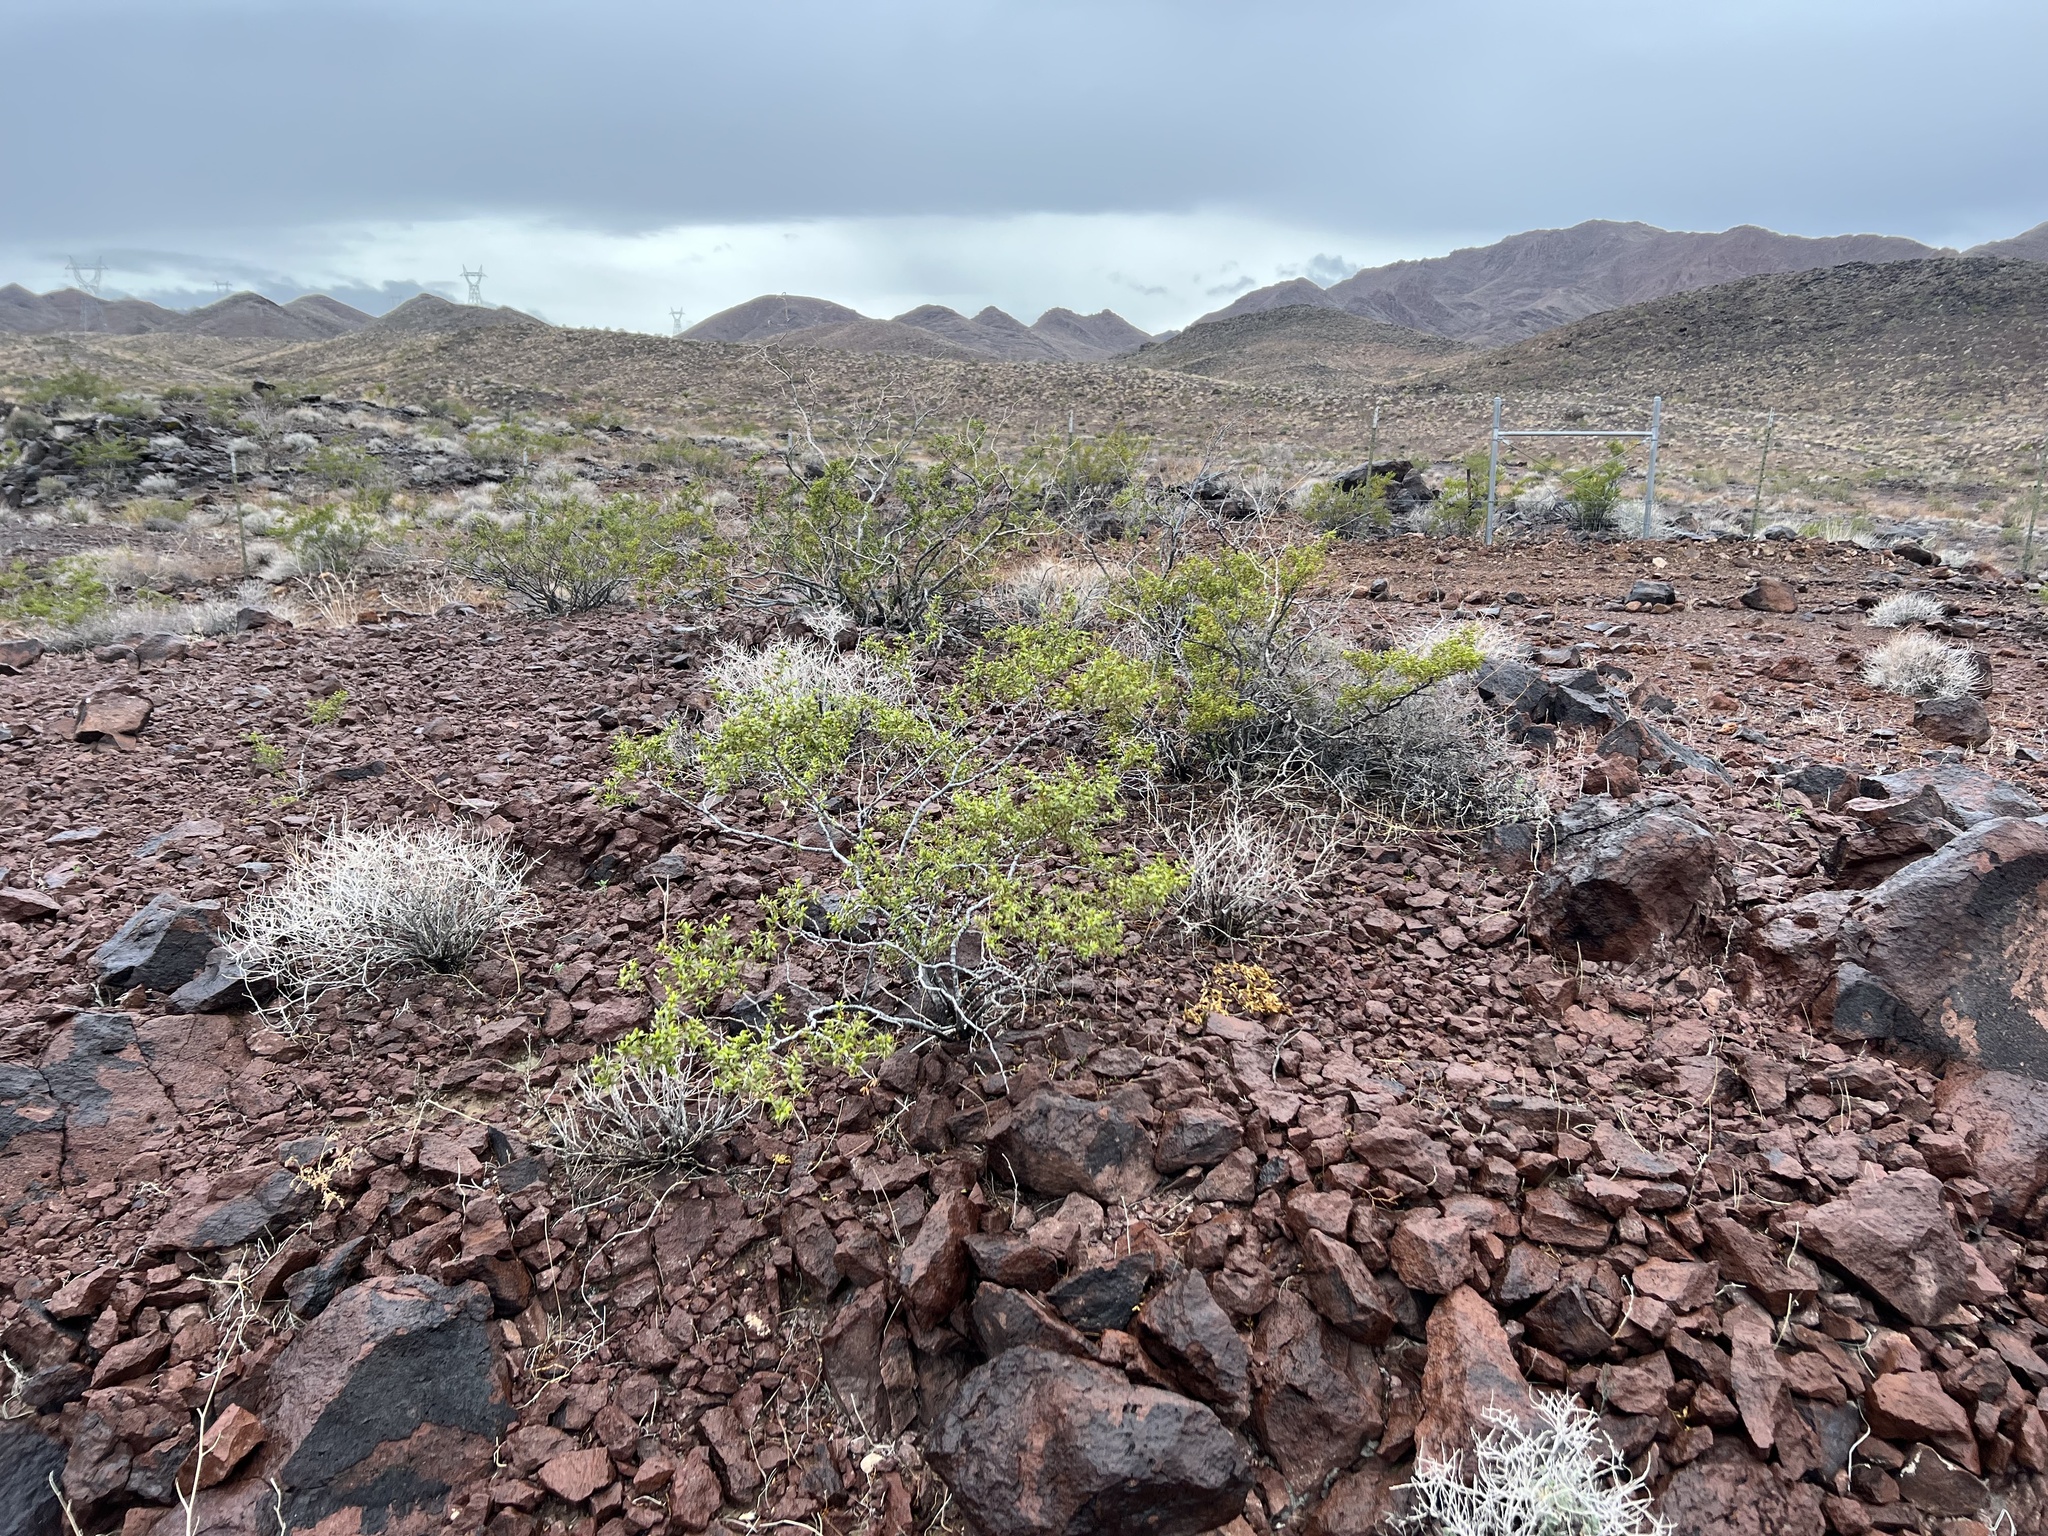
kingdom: Plantae
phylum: Tracheophyta
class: Magnoliopsida
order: Zygophyllales
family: Zygophyllaceae
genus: Larrea
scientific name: Larrea tridentata
